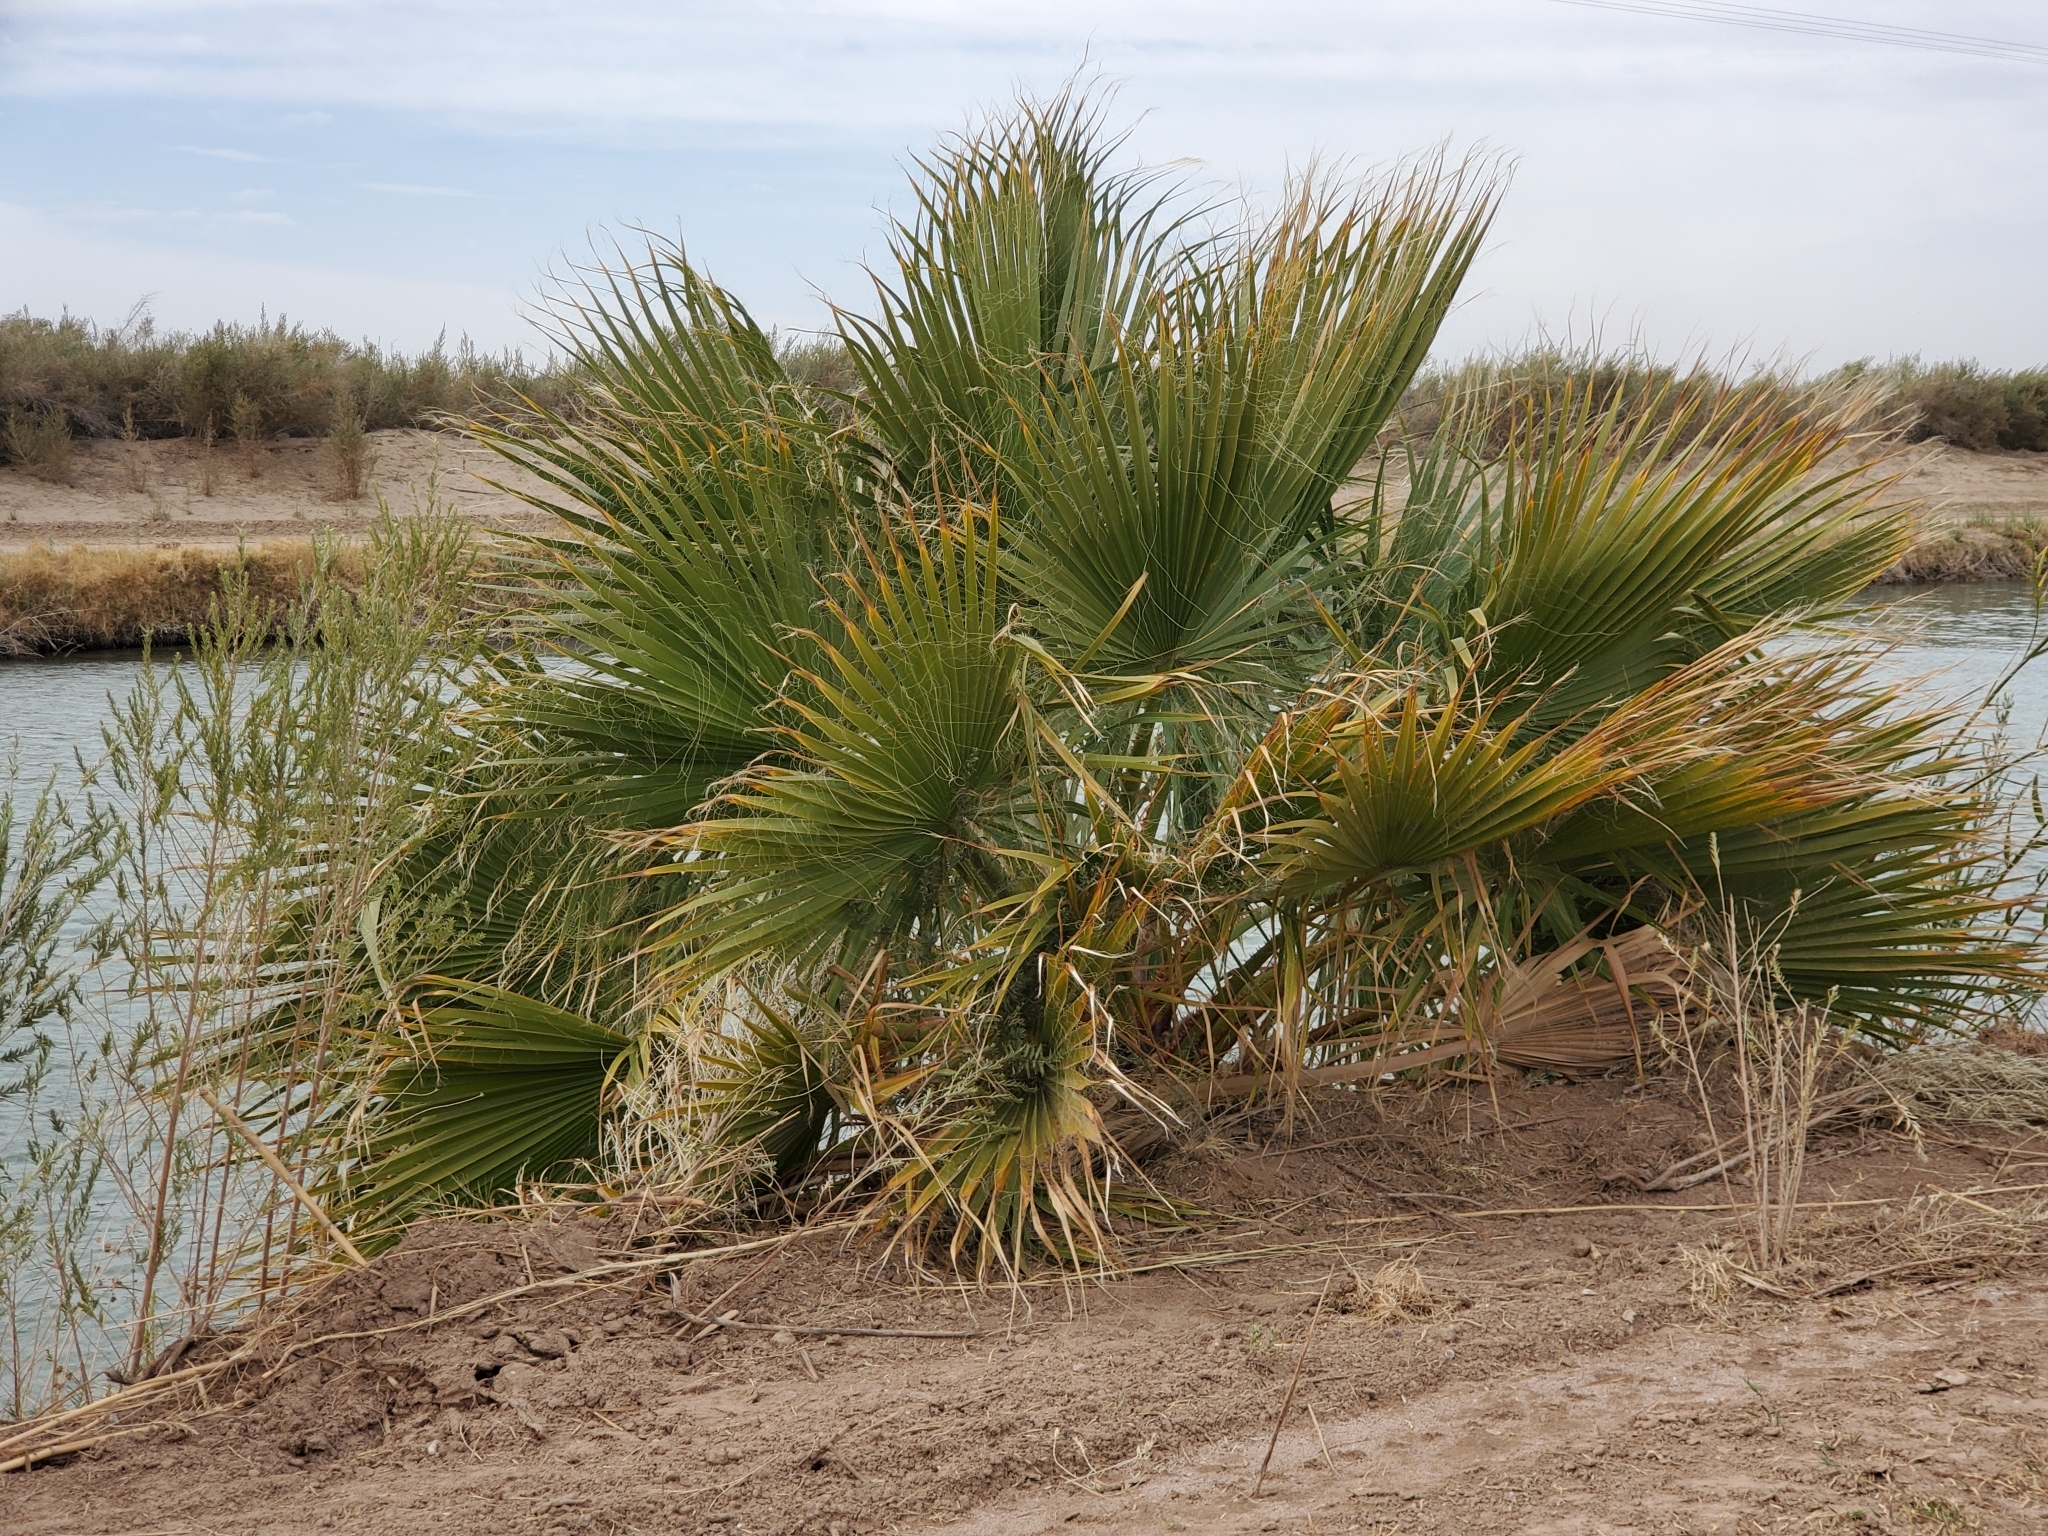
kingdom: Plantae
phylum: Tracheophyta
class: Liliopsida
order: Arecales
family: Arecaceae
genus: Washingtonia
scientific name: Washingtonia filifera
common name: California fan palm
